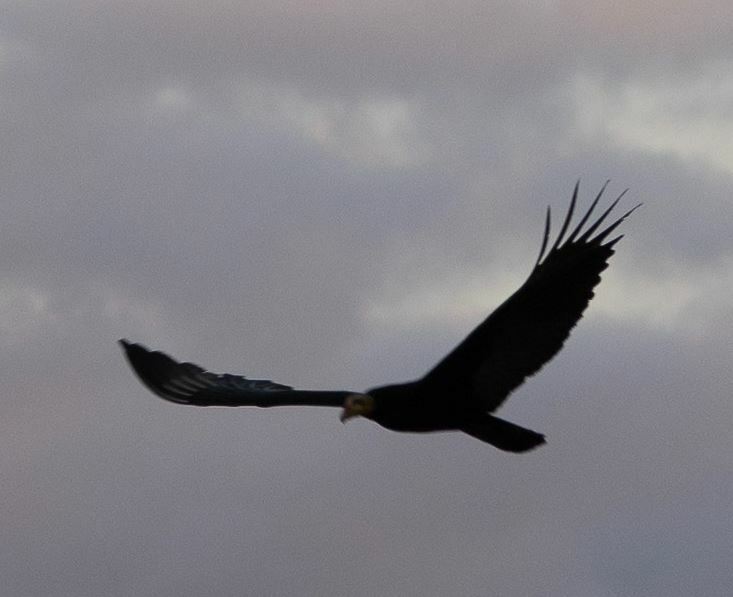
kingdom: Animalia
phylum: Chordata
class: Aves
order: Accipitriformes
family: Cathartidae
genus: Cathartes
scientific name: Cathartes melambrotus
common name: Greater yellow-headed vulture
